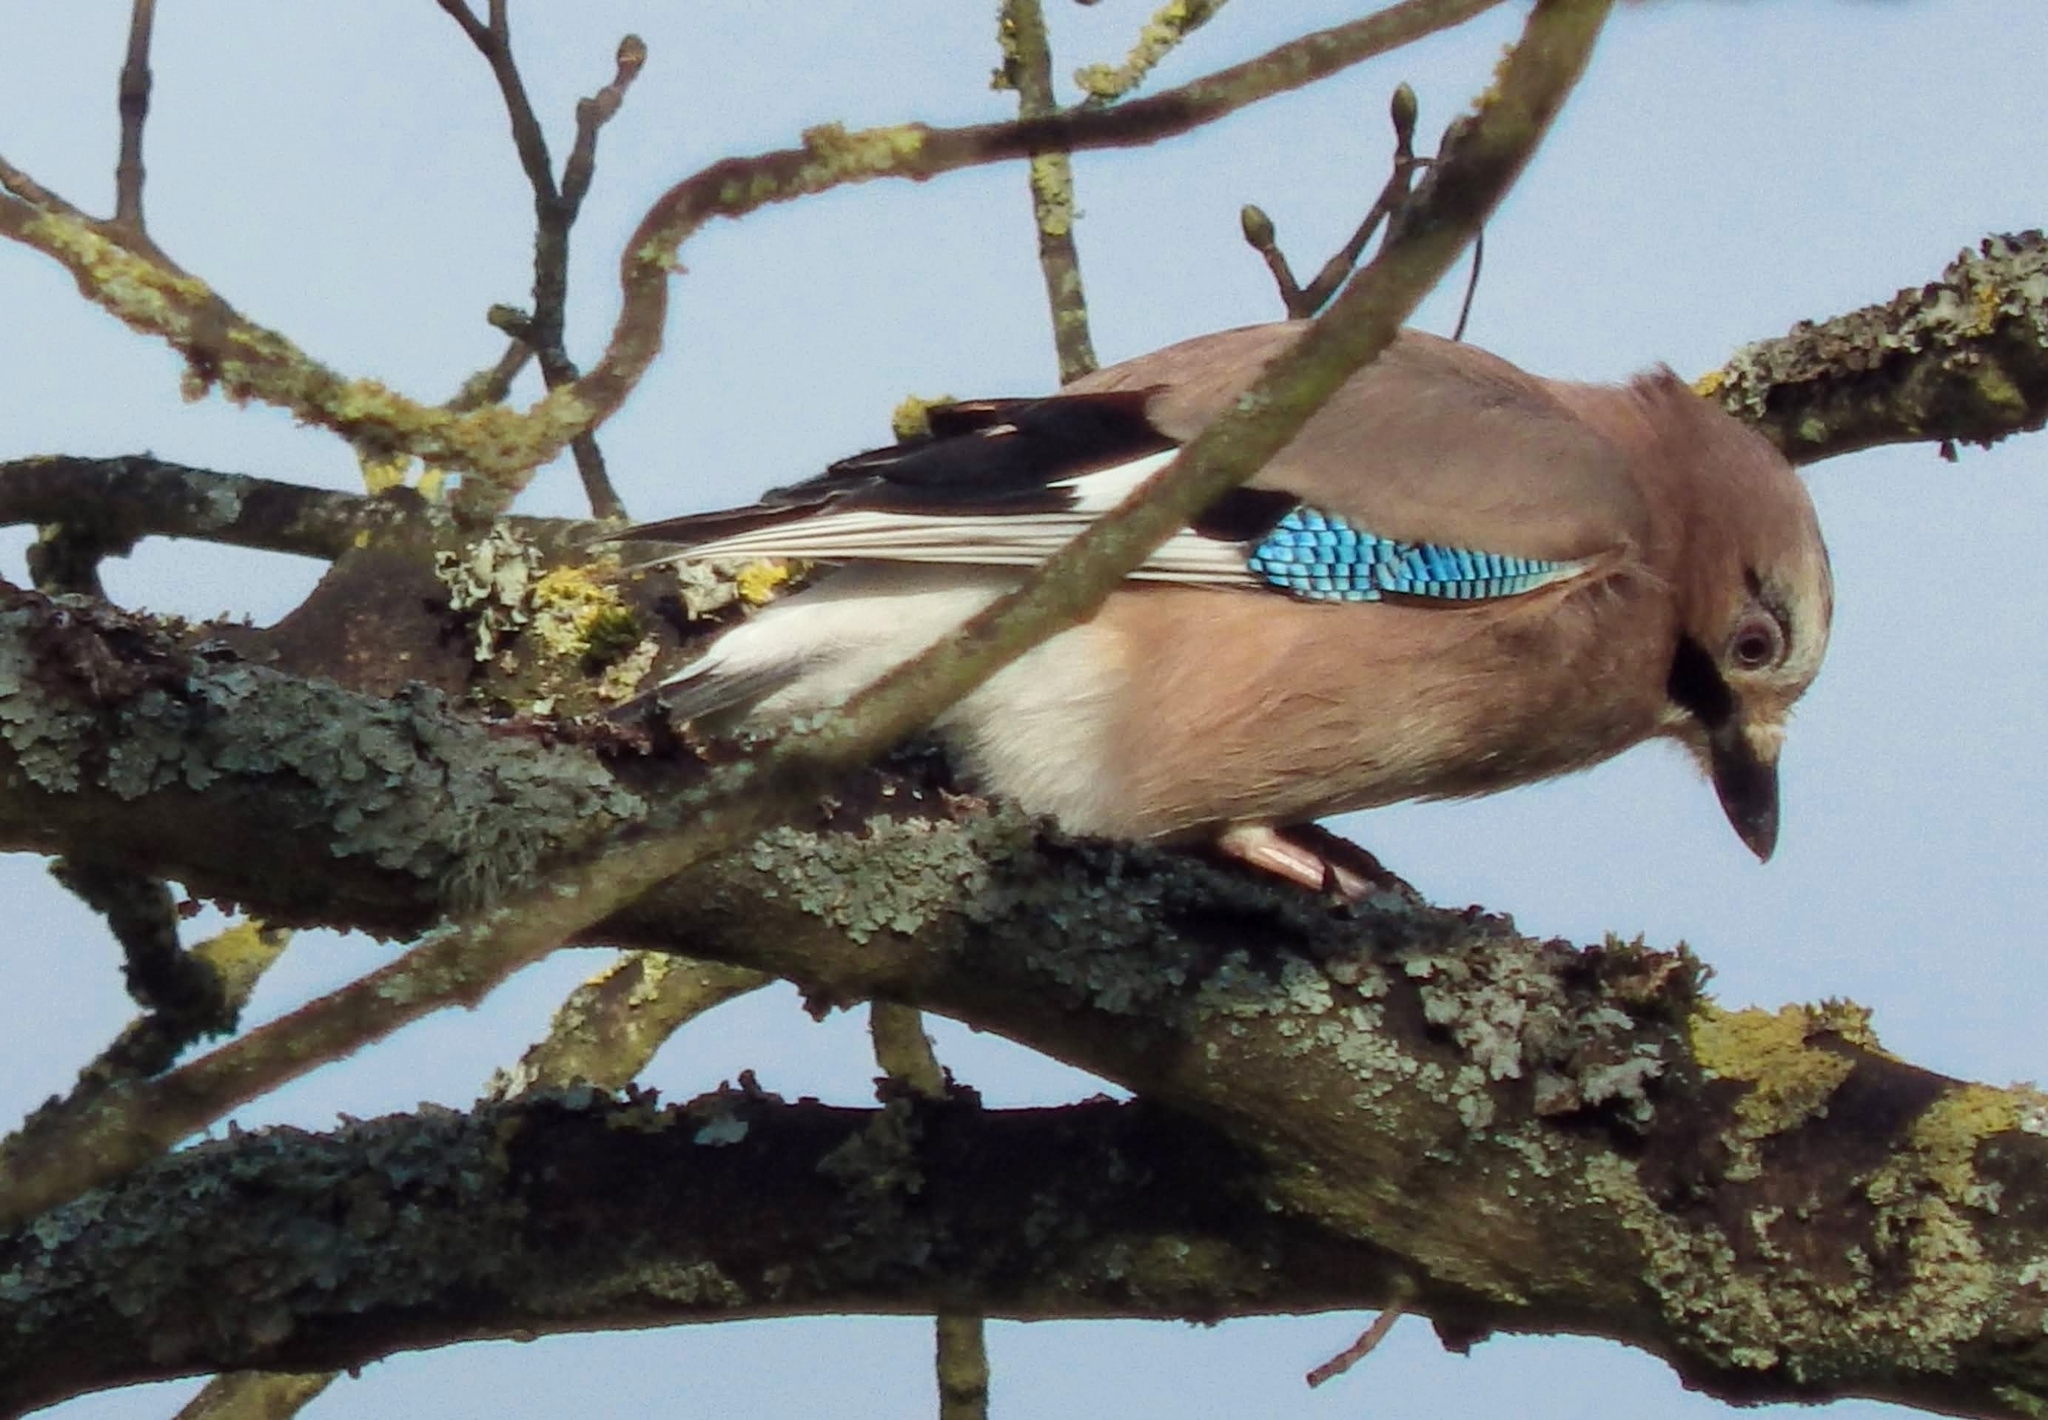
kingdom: Animalia
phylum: Chordata
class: Aves
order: Passeriformes
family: Corvidae
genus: Garrulus
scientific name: Garrulus glandarius
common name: Eurasian jay
